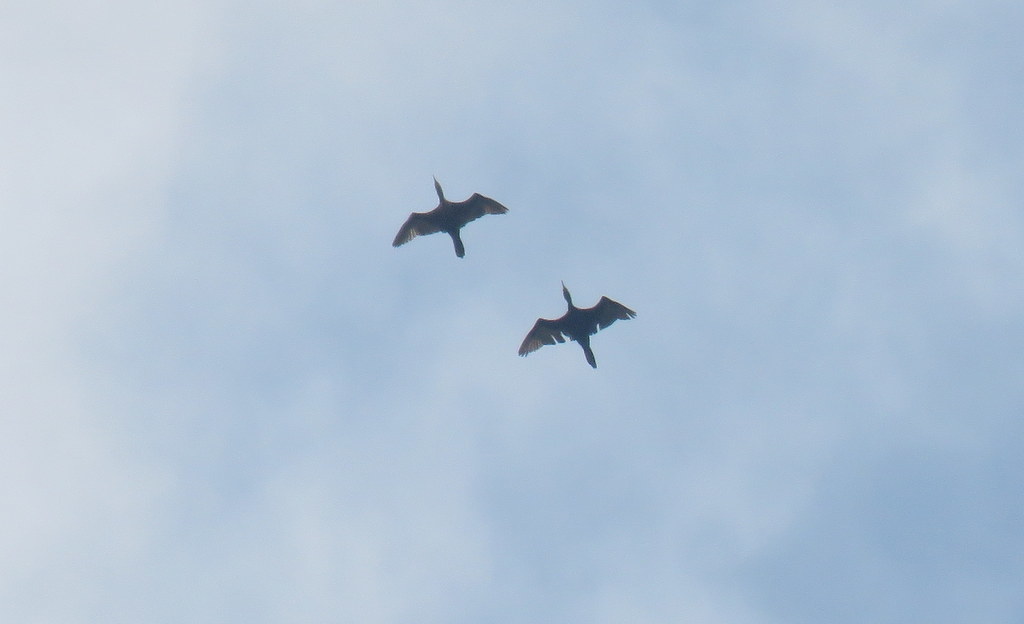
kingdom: Animalia
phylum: Chordata
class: Aves
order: Suliformes
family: Phalacrocoracidae
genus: Phalacrocorax
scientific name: Phalacrocorax brasilianus
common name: Neotropic cormorant
